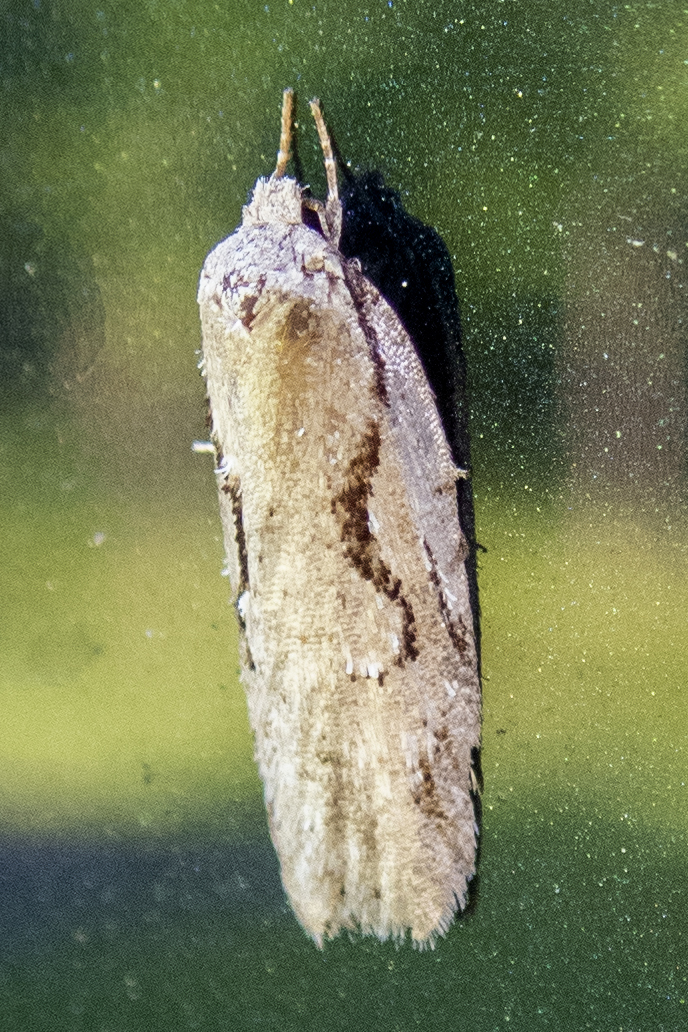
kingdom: Animalia
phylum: Arthropoda
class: Insecta
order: Lepidoptera
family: Depressariidae
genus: Semioscopis
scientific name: Semioscopis packardella
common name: Packard's concealer moth
